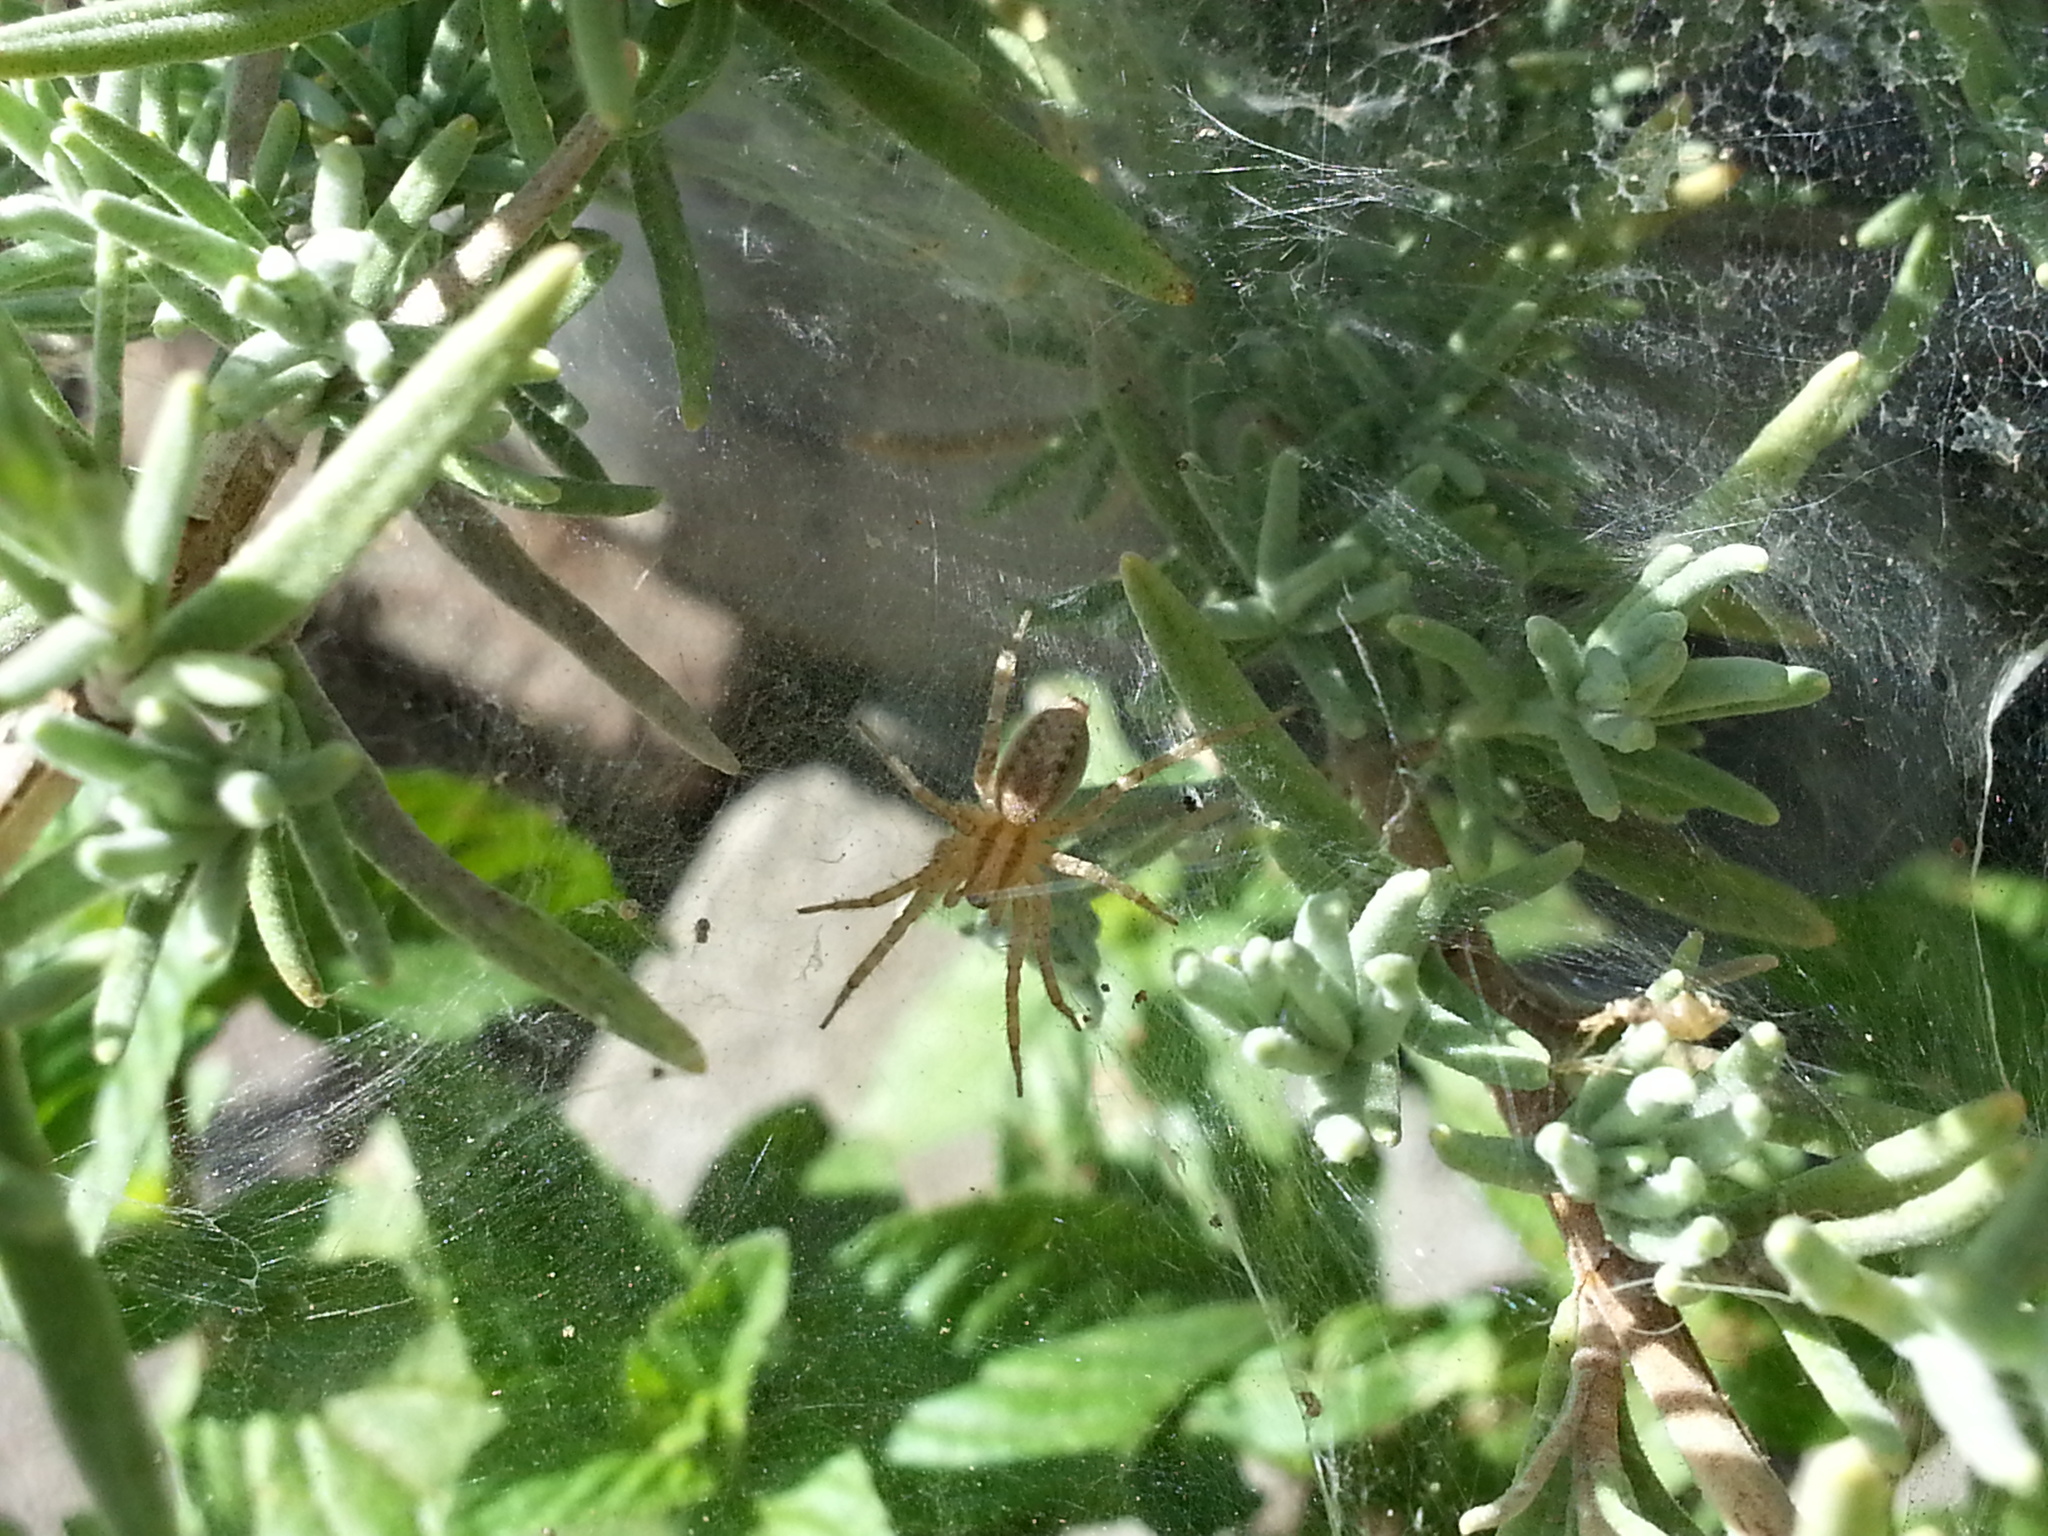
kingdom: Animalia
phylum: Arthropoda
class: Arachnida
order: Araneae
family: Agelenidae
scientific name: Agelenidae
